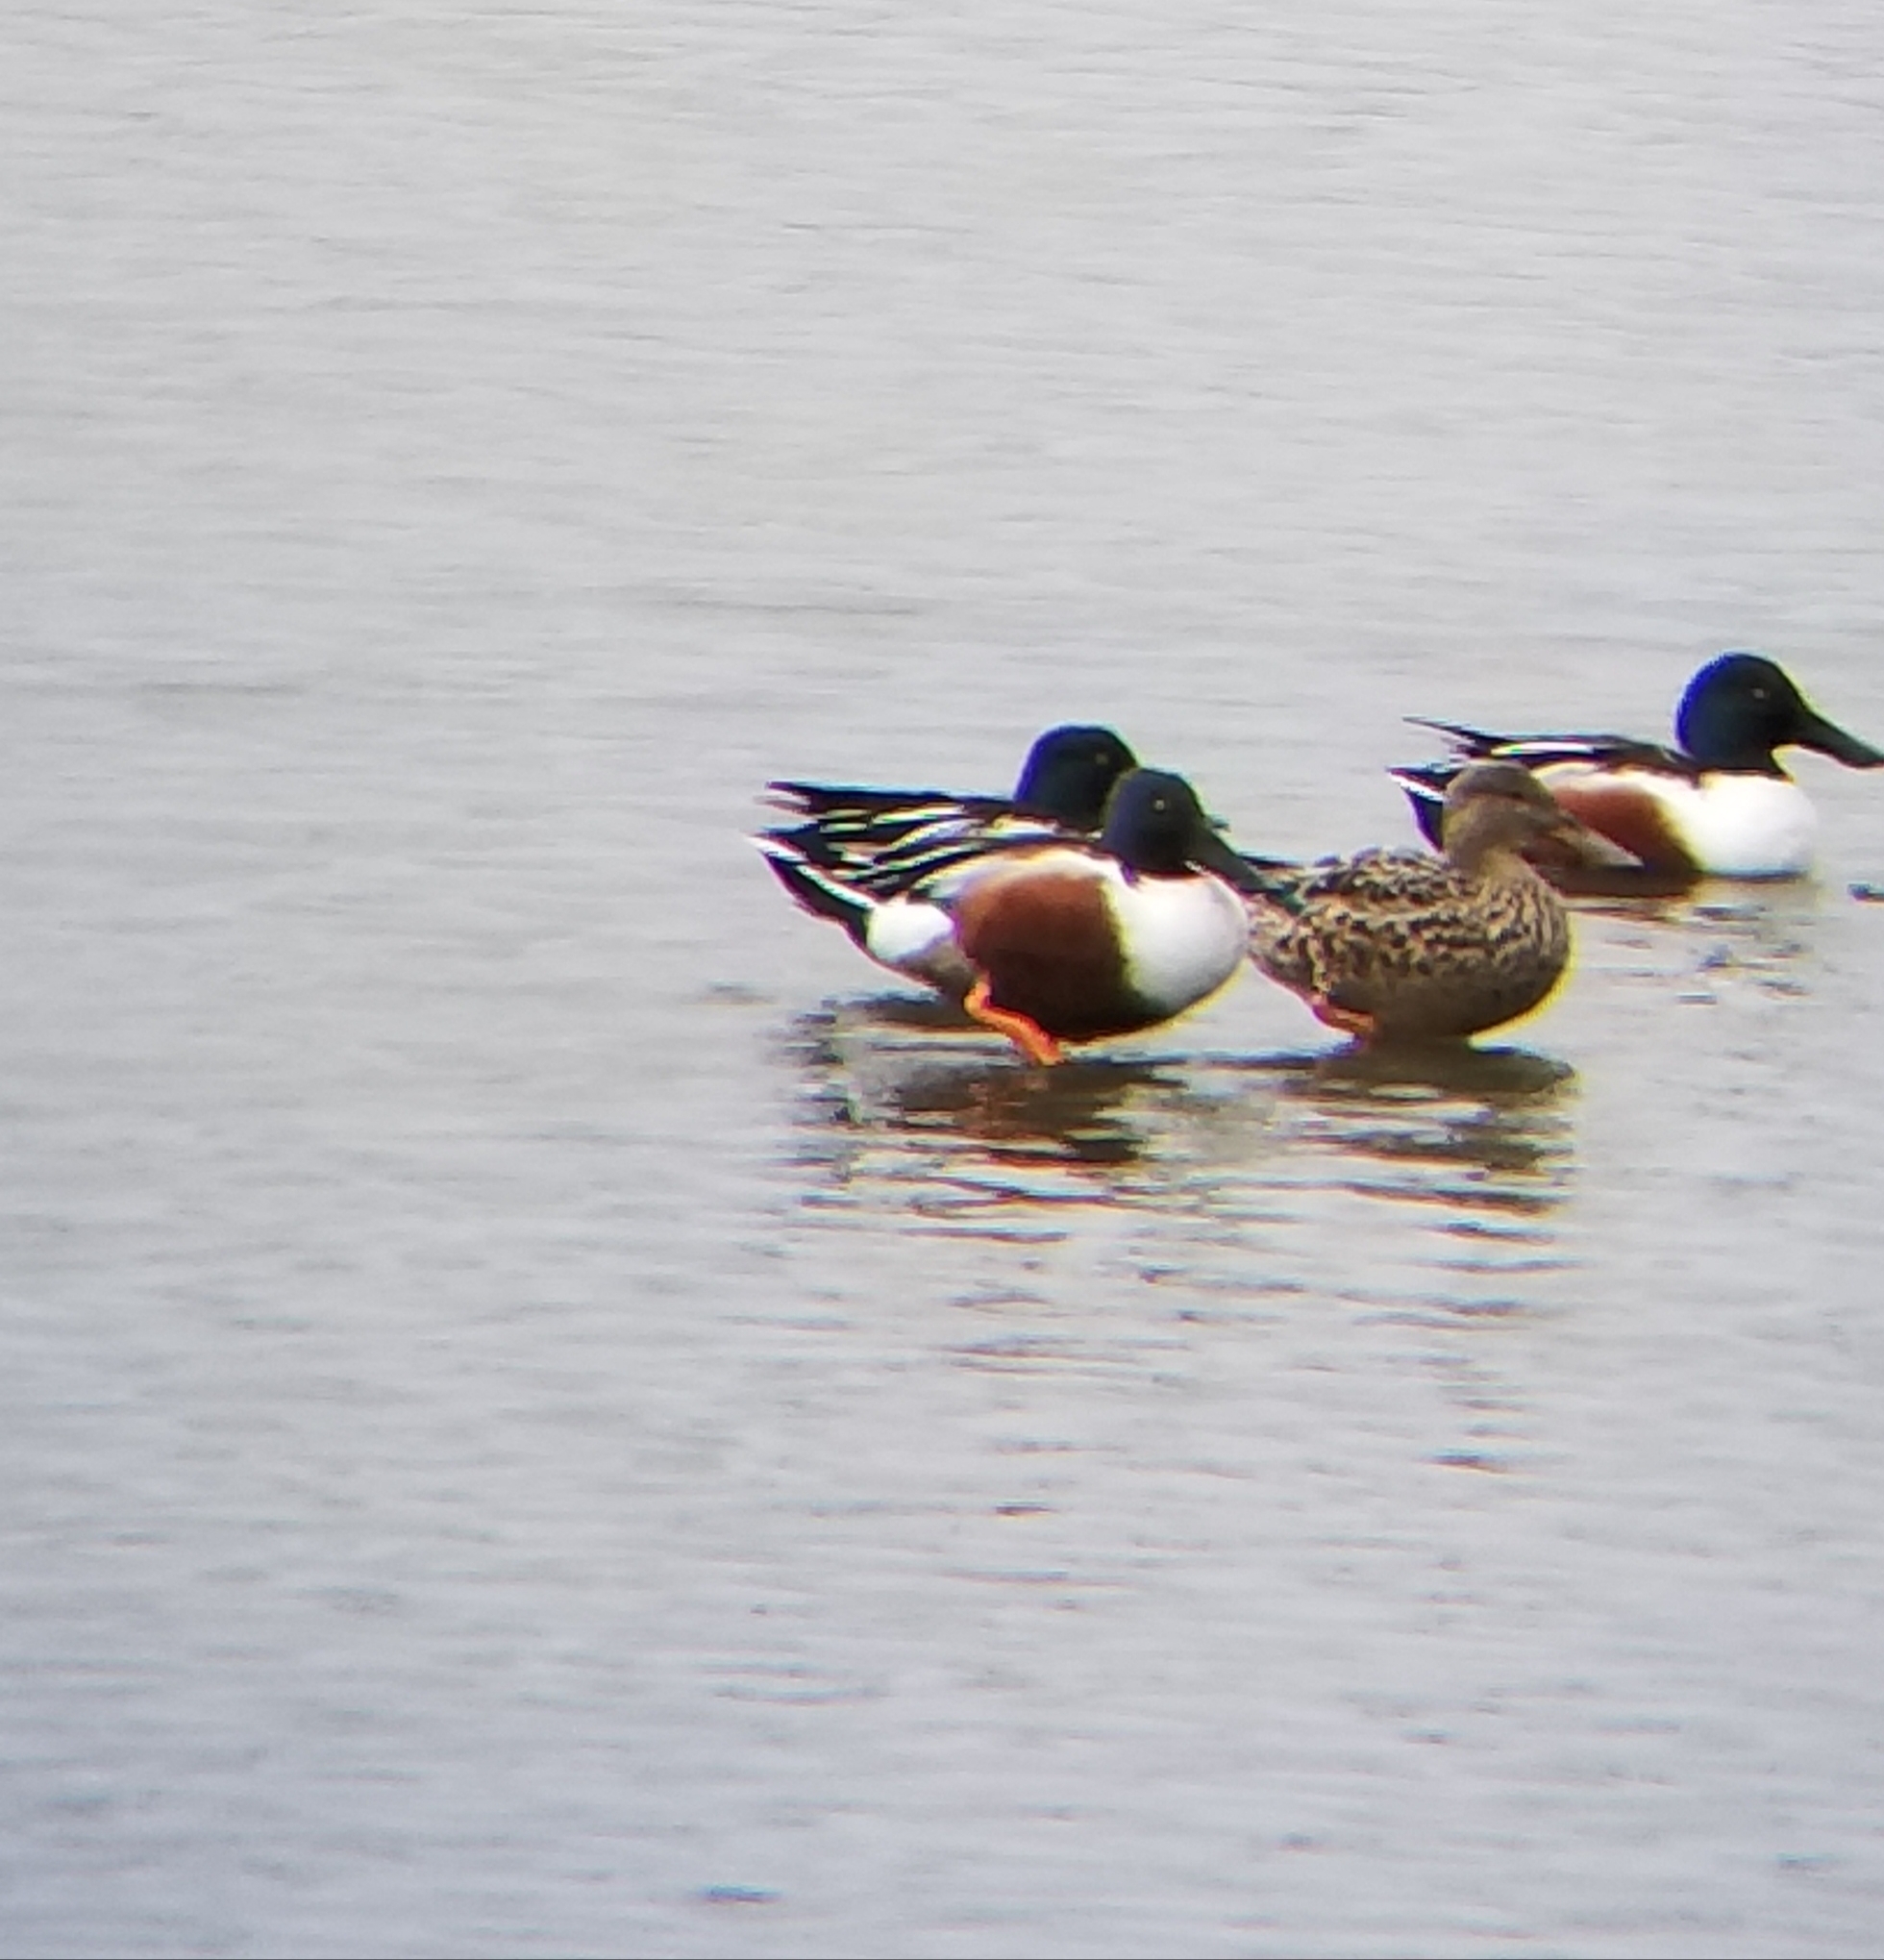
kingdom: Animalia
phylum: Chordata
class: Aves
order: Anseriformes
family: Anatidae
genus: Spatula
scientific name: Spatula clypeata
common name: Northern shoveler
